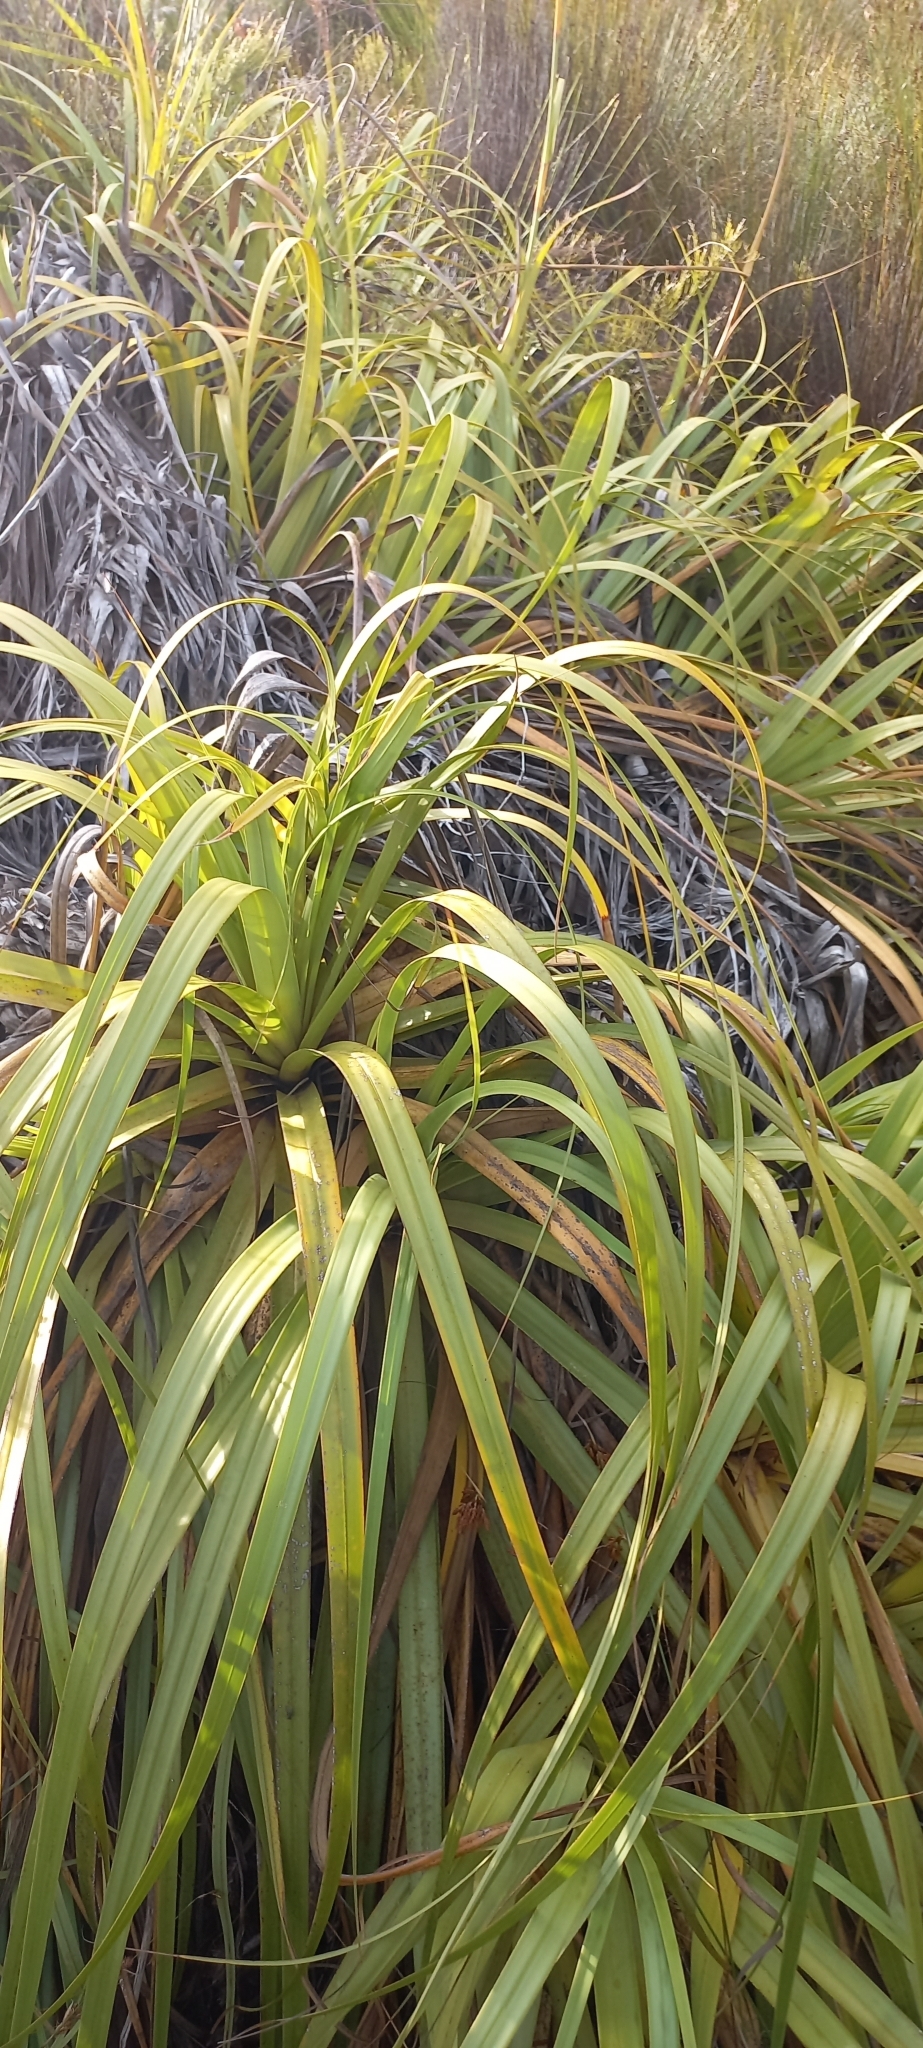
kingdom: Plantae
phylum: Tracheophyta
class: Liliopsida
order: Poales
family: Cyperaceae
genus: Tetraria
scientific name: Tetraria thermalis
